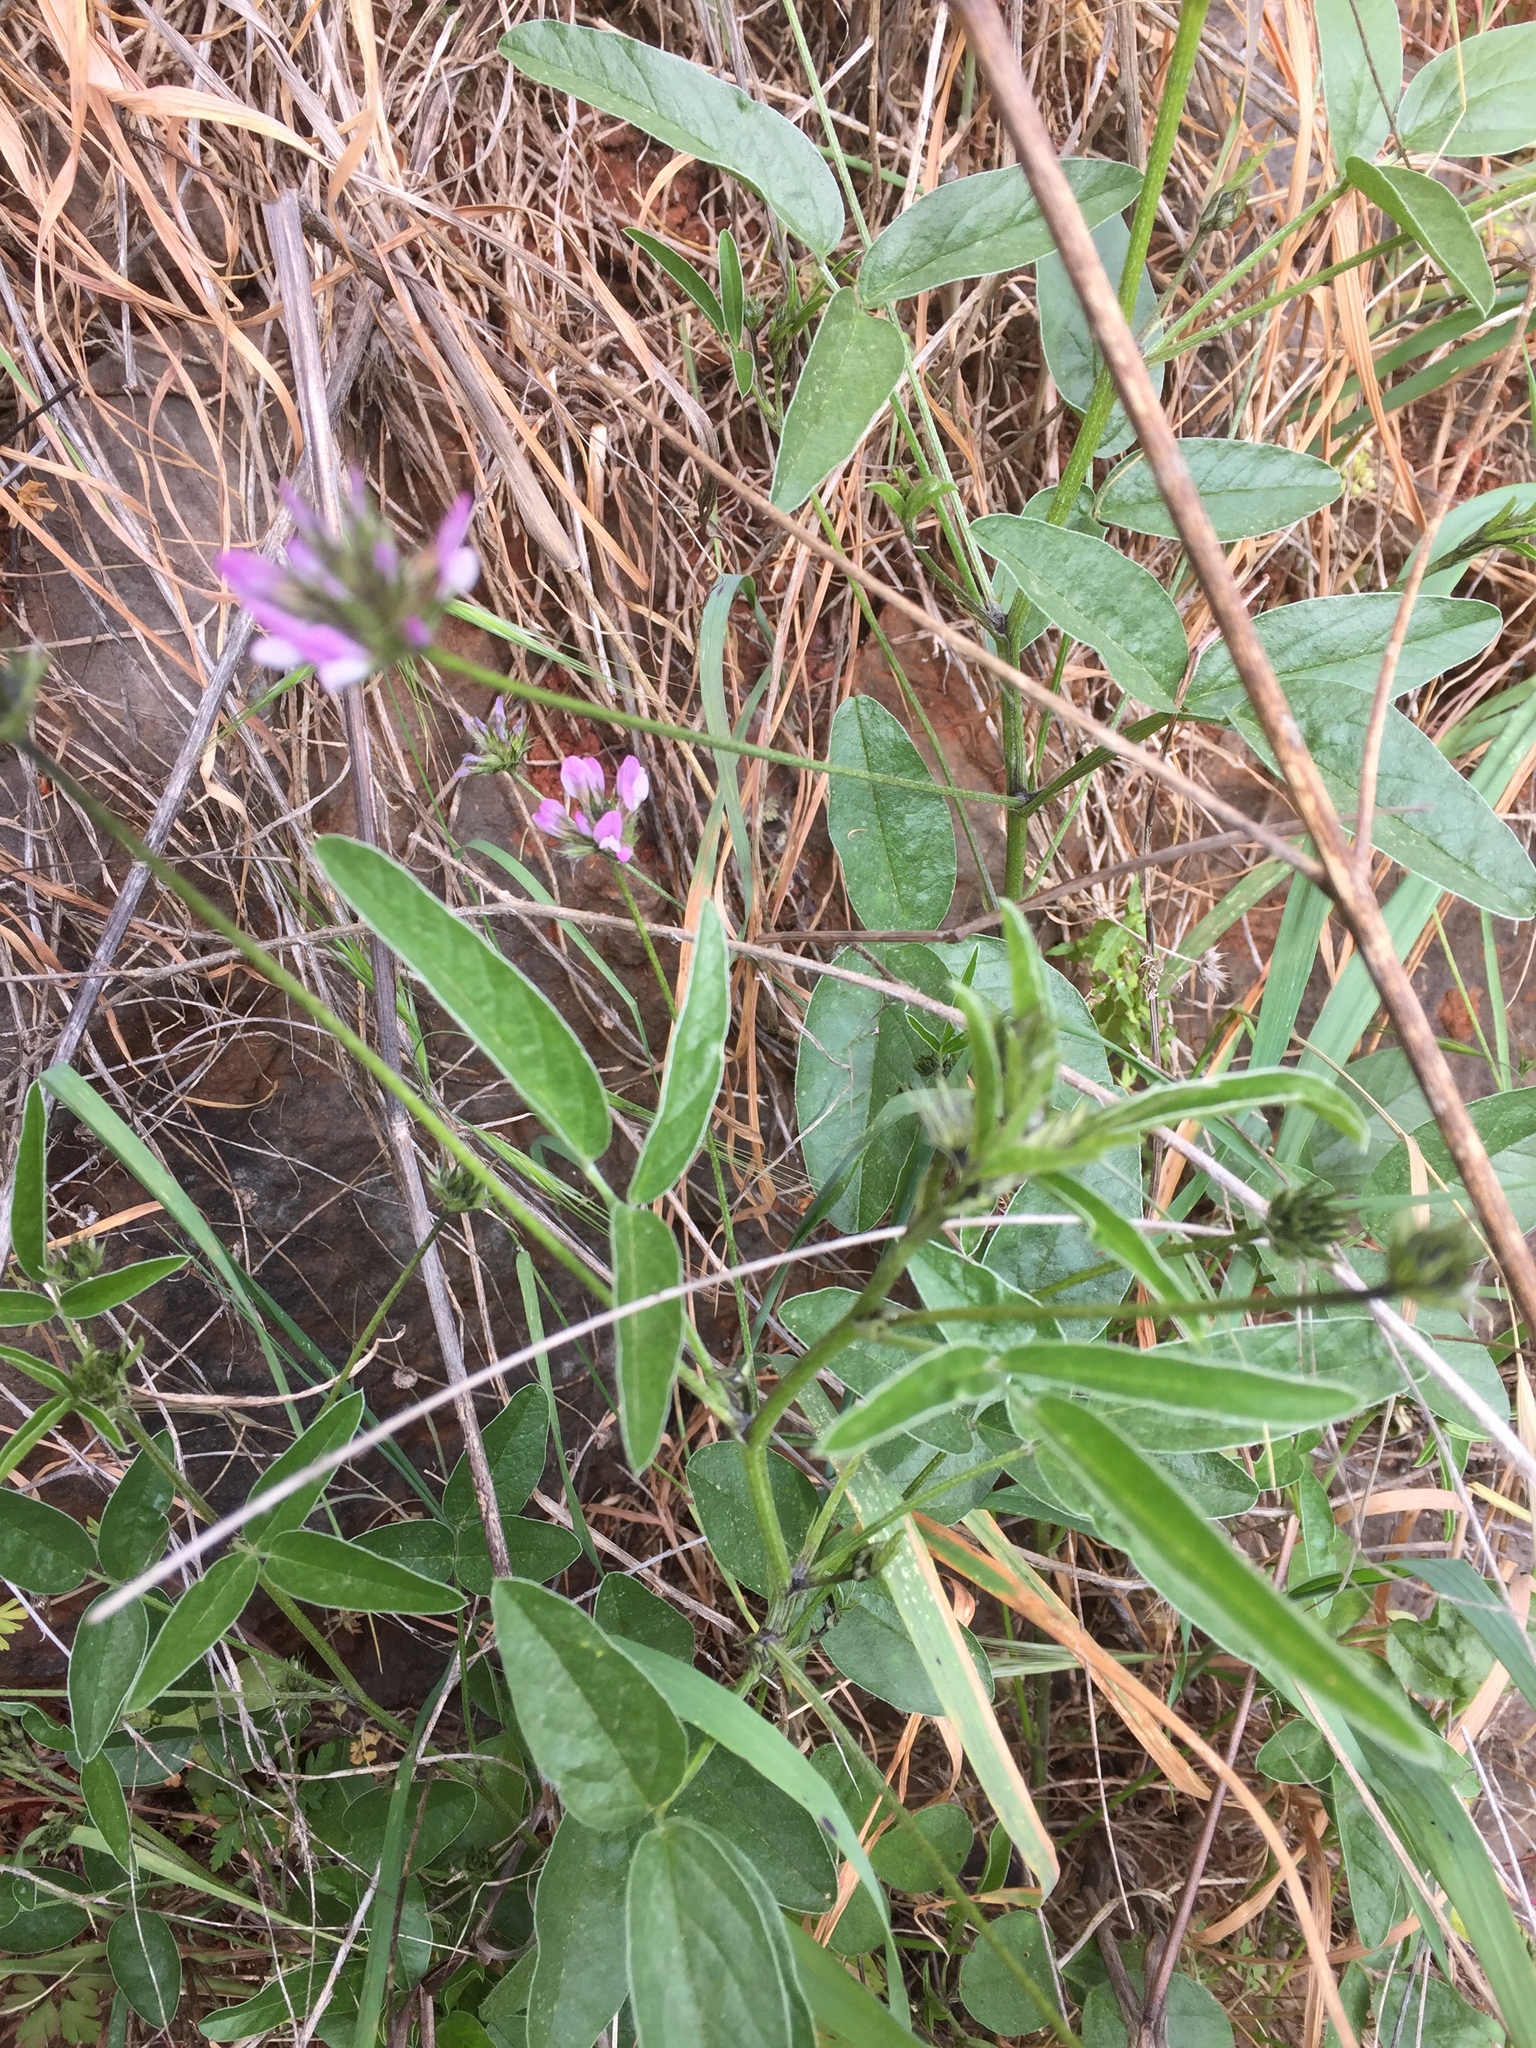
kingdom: Plantae
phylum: Tracheophyta
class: Magnoliopsida
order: Fabales
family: Fabaceae
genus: Bituminaria
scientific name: Bituminaria bituminosa
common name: Arabian pea
